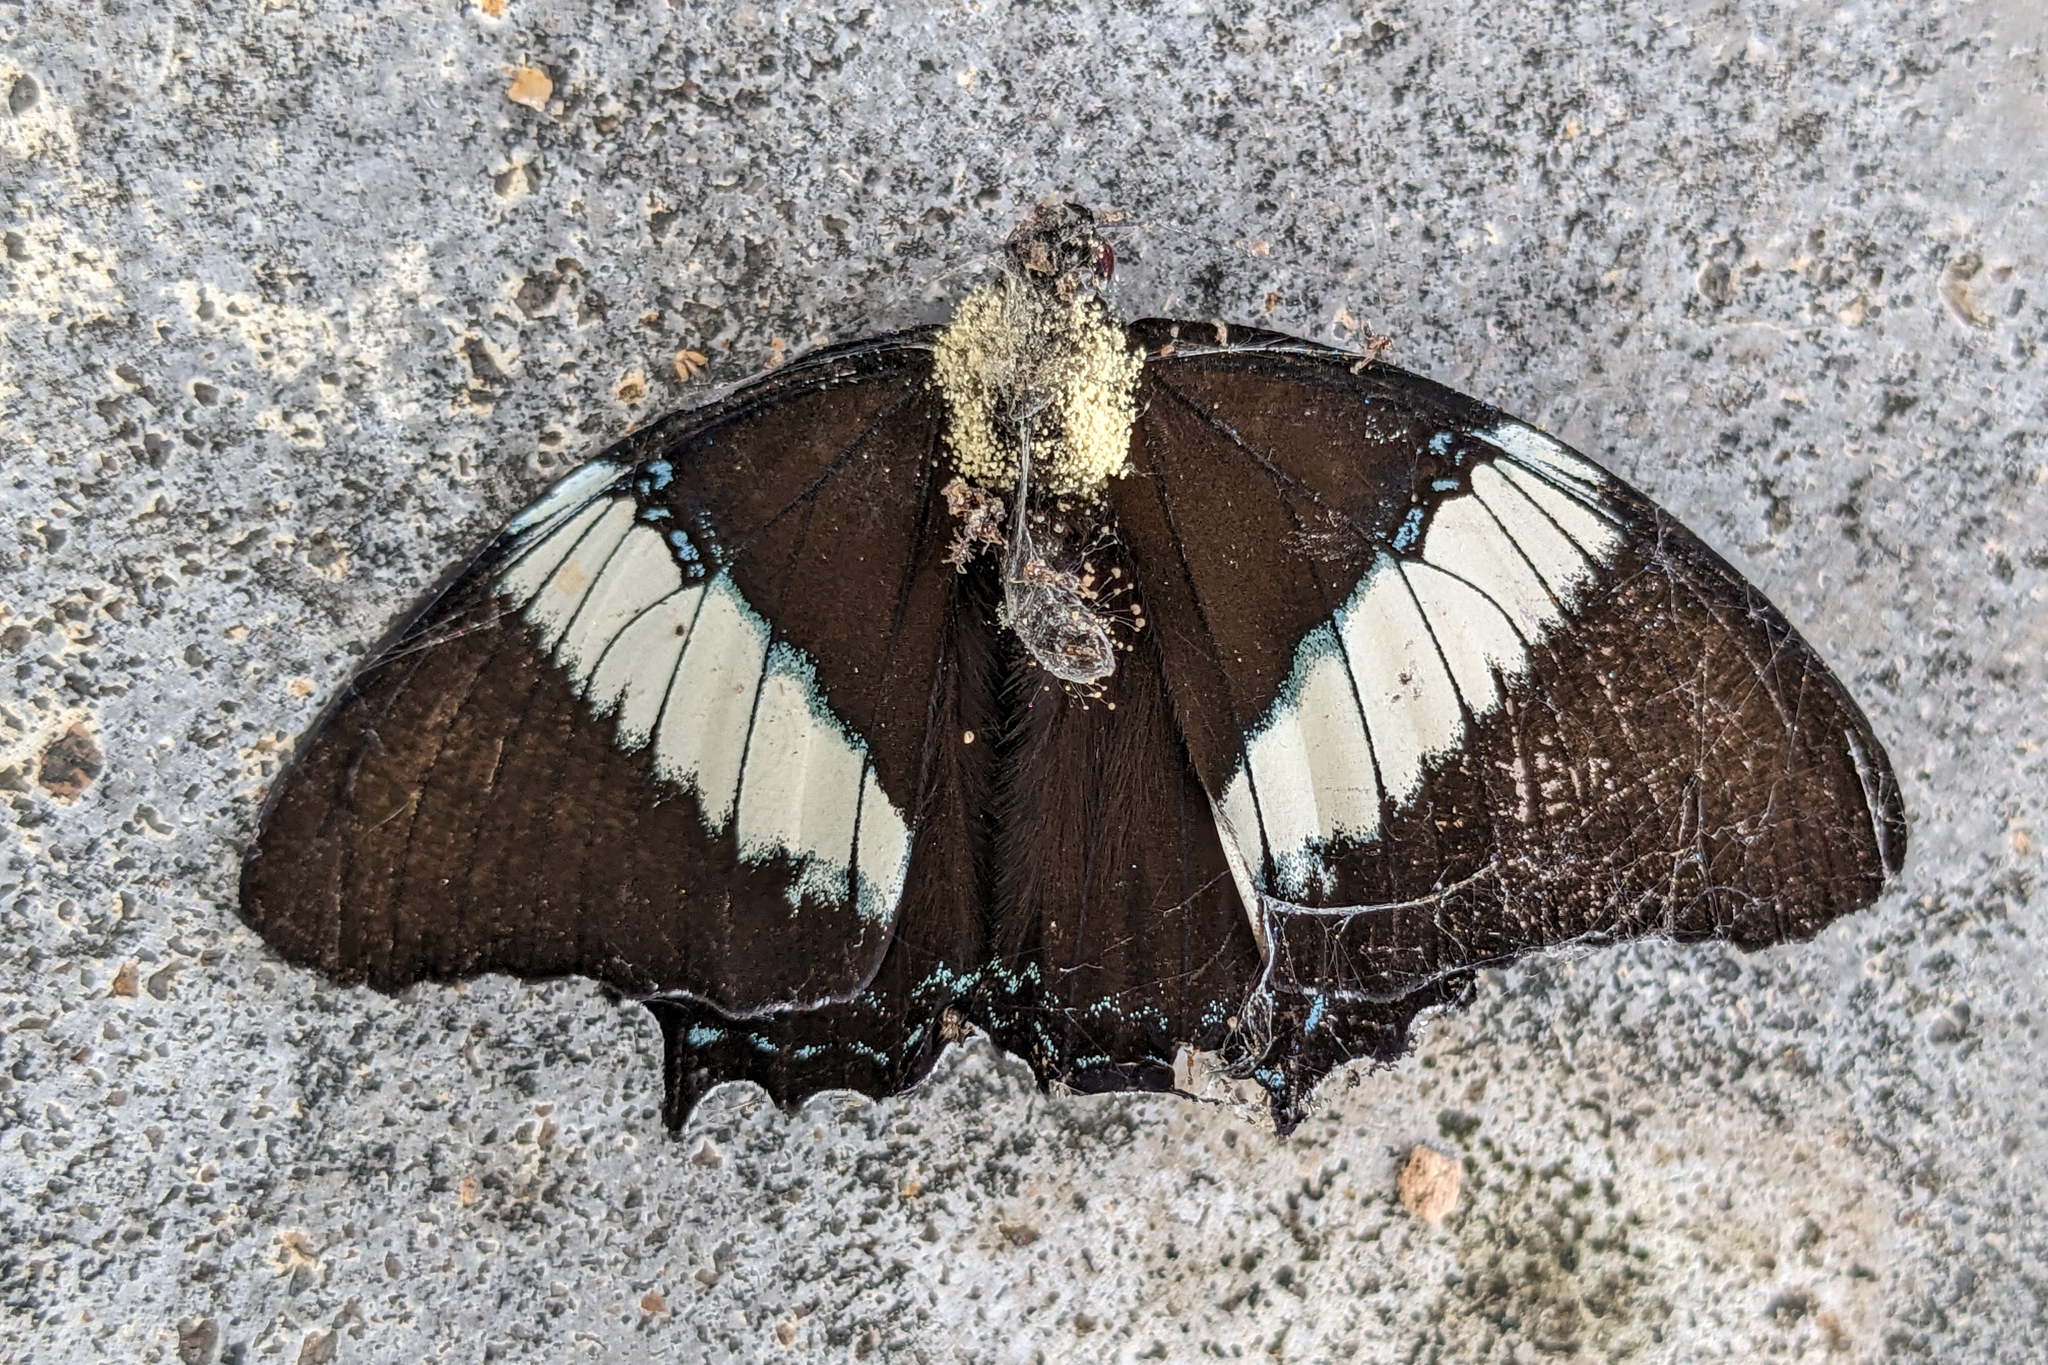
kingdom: Animalia
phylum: Arthropoda
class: Insecta
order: Lepidoptera
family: Nymphalidae
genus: Siproeta
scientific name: Siproeta epaphus
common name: Rusty-tipped page
